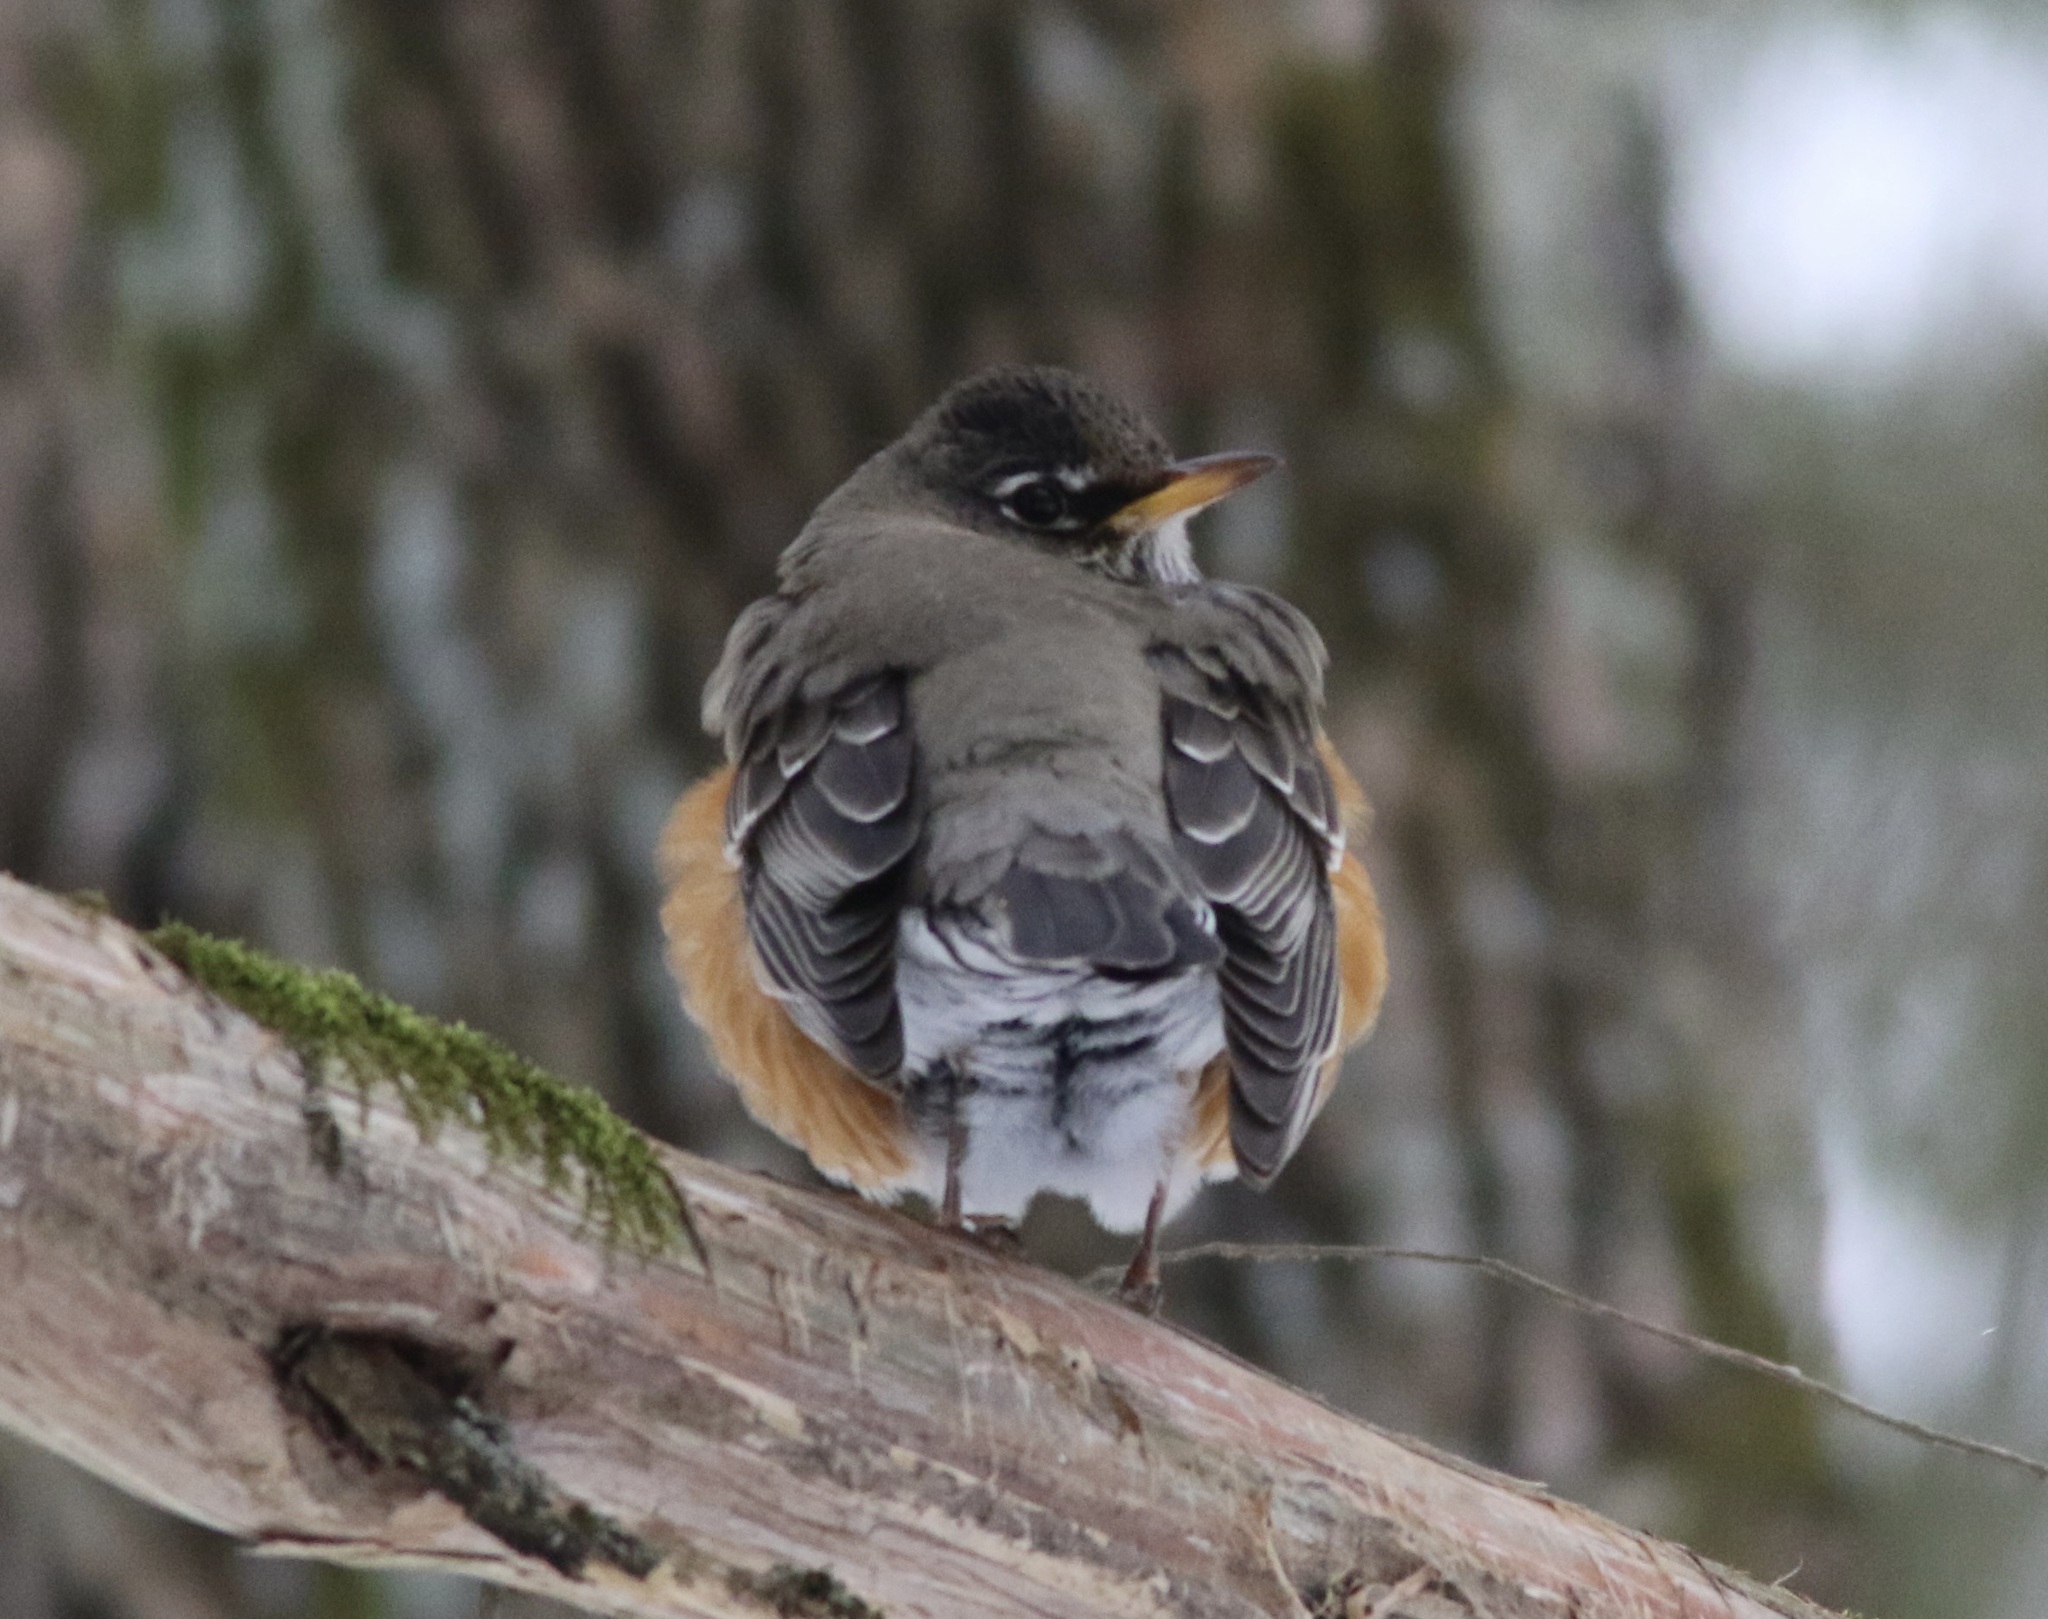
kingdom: Animalia
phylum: Chordata
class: Aves
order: Passeriformes
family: Turdidae
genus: Turdus
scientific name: Turdus migratorius
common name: American robin
